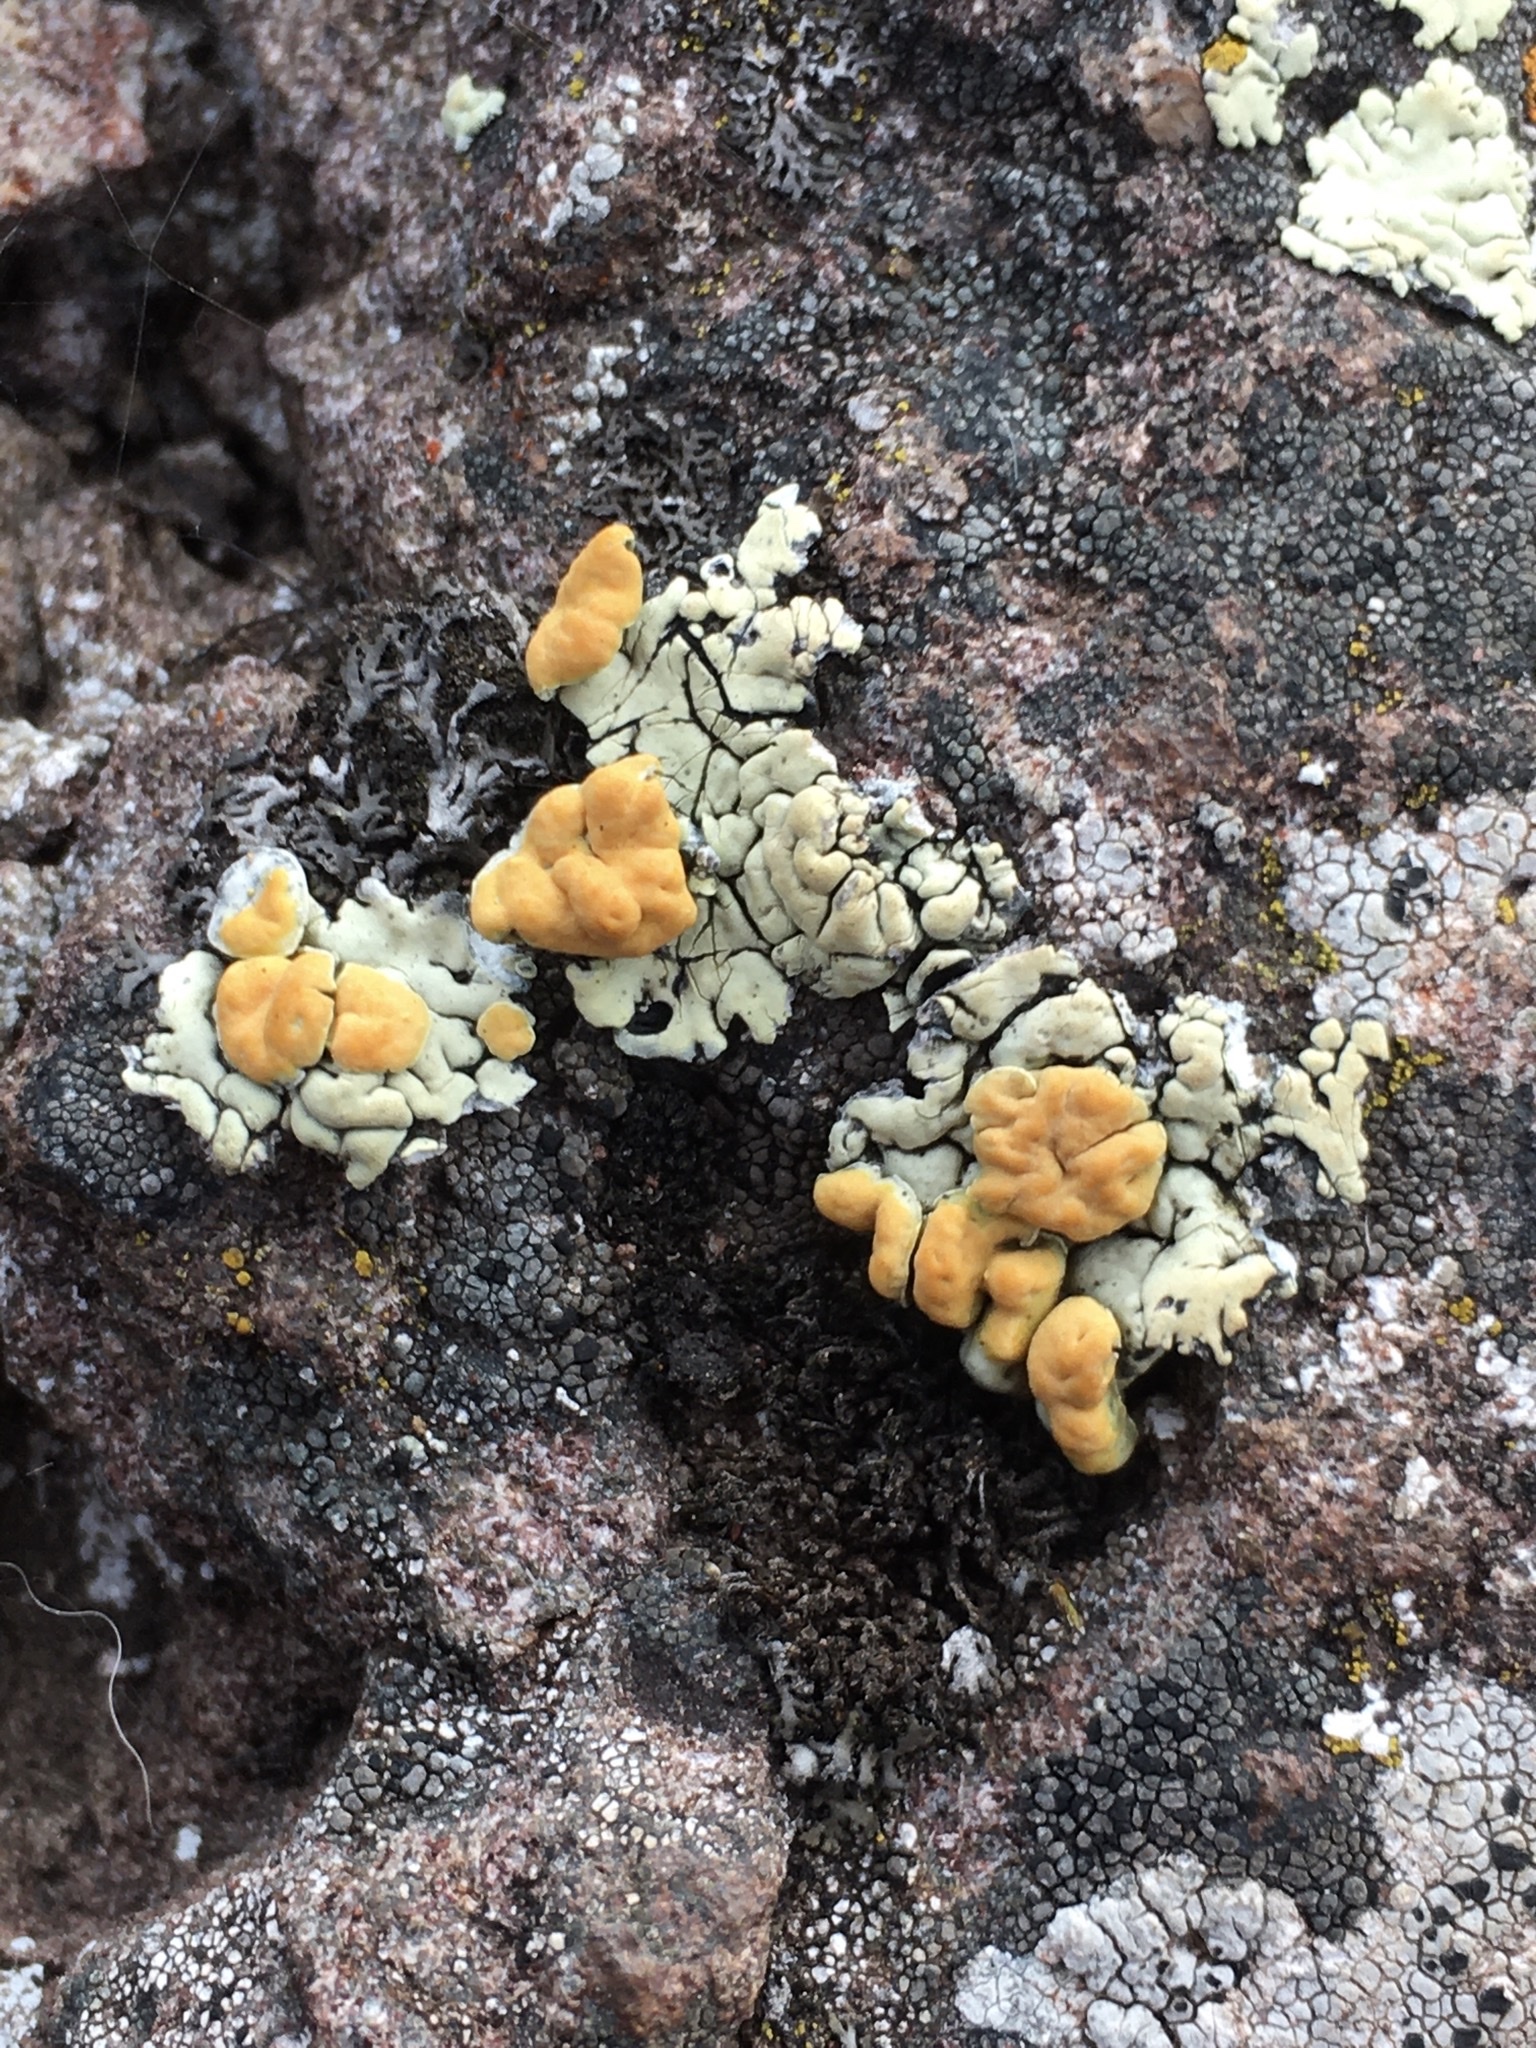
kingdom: Fungi
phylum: Ascomycota
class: Lecanoromycetes
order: Lecanorales
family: Lecanoraceae
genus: Omphalodina
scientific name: Omphalodina chrysoleuca
